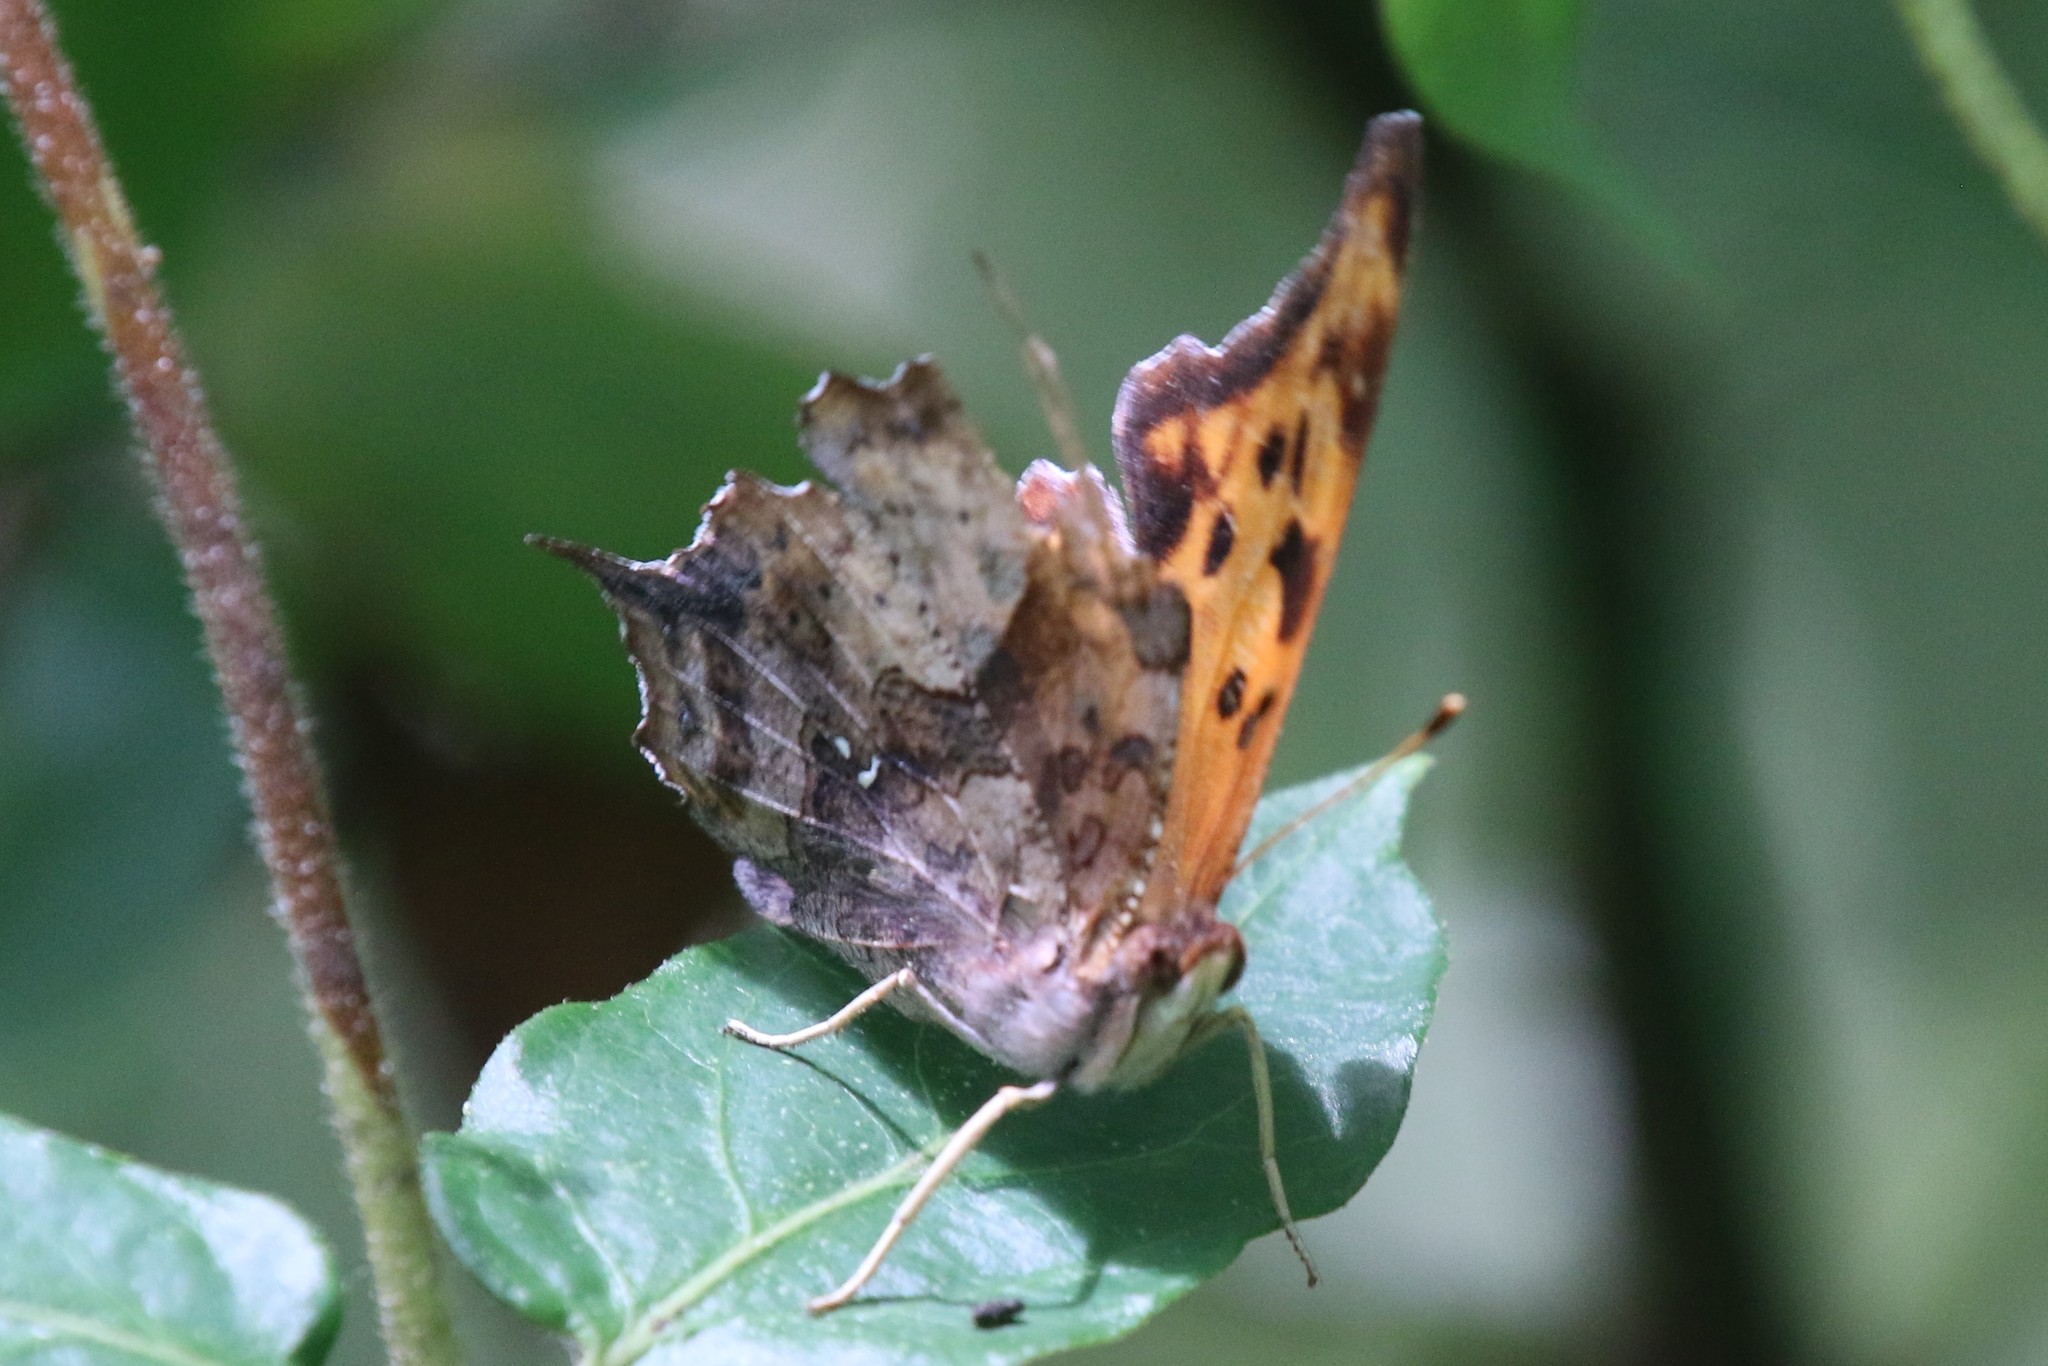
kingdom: Animalia
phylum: Arthropoda
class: Insecta
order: Lepidoptera
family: Nymphalidae
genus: Polygonia
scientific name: Polygonia interrogationis
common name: Question mark
